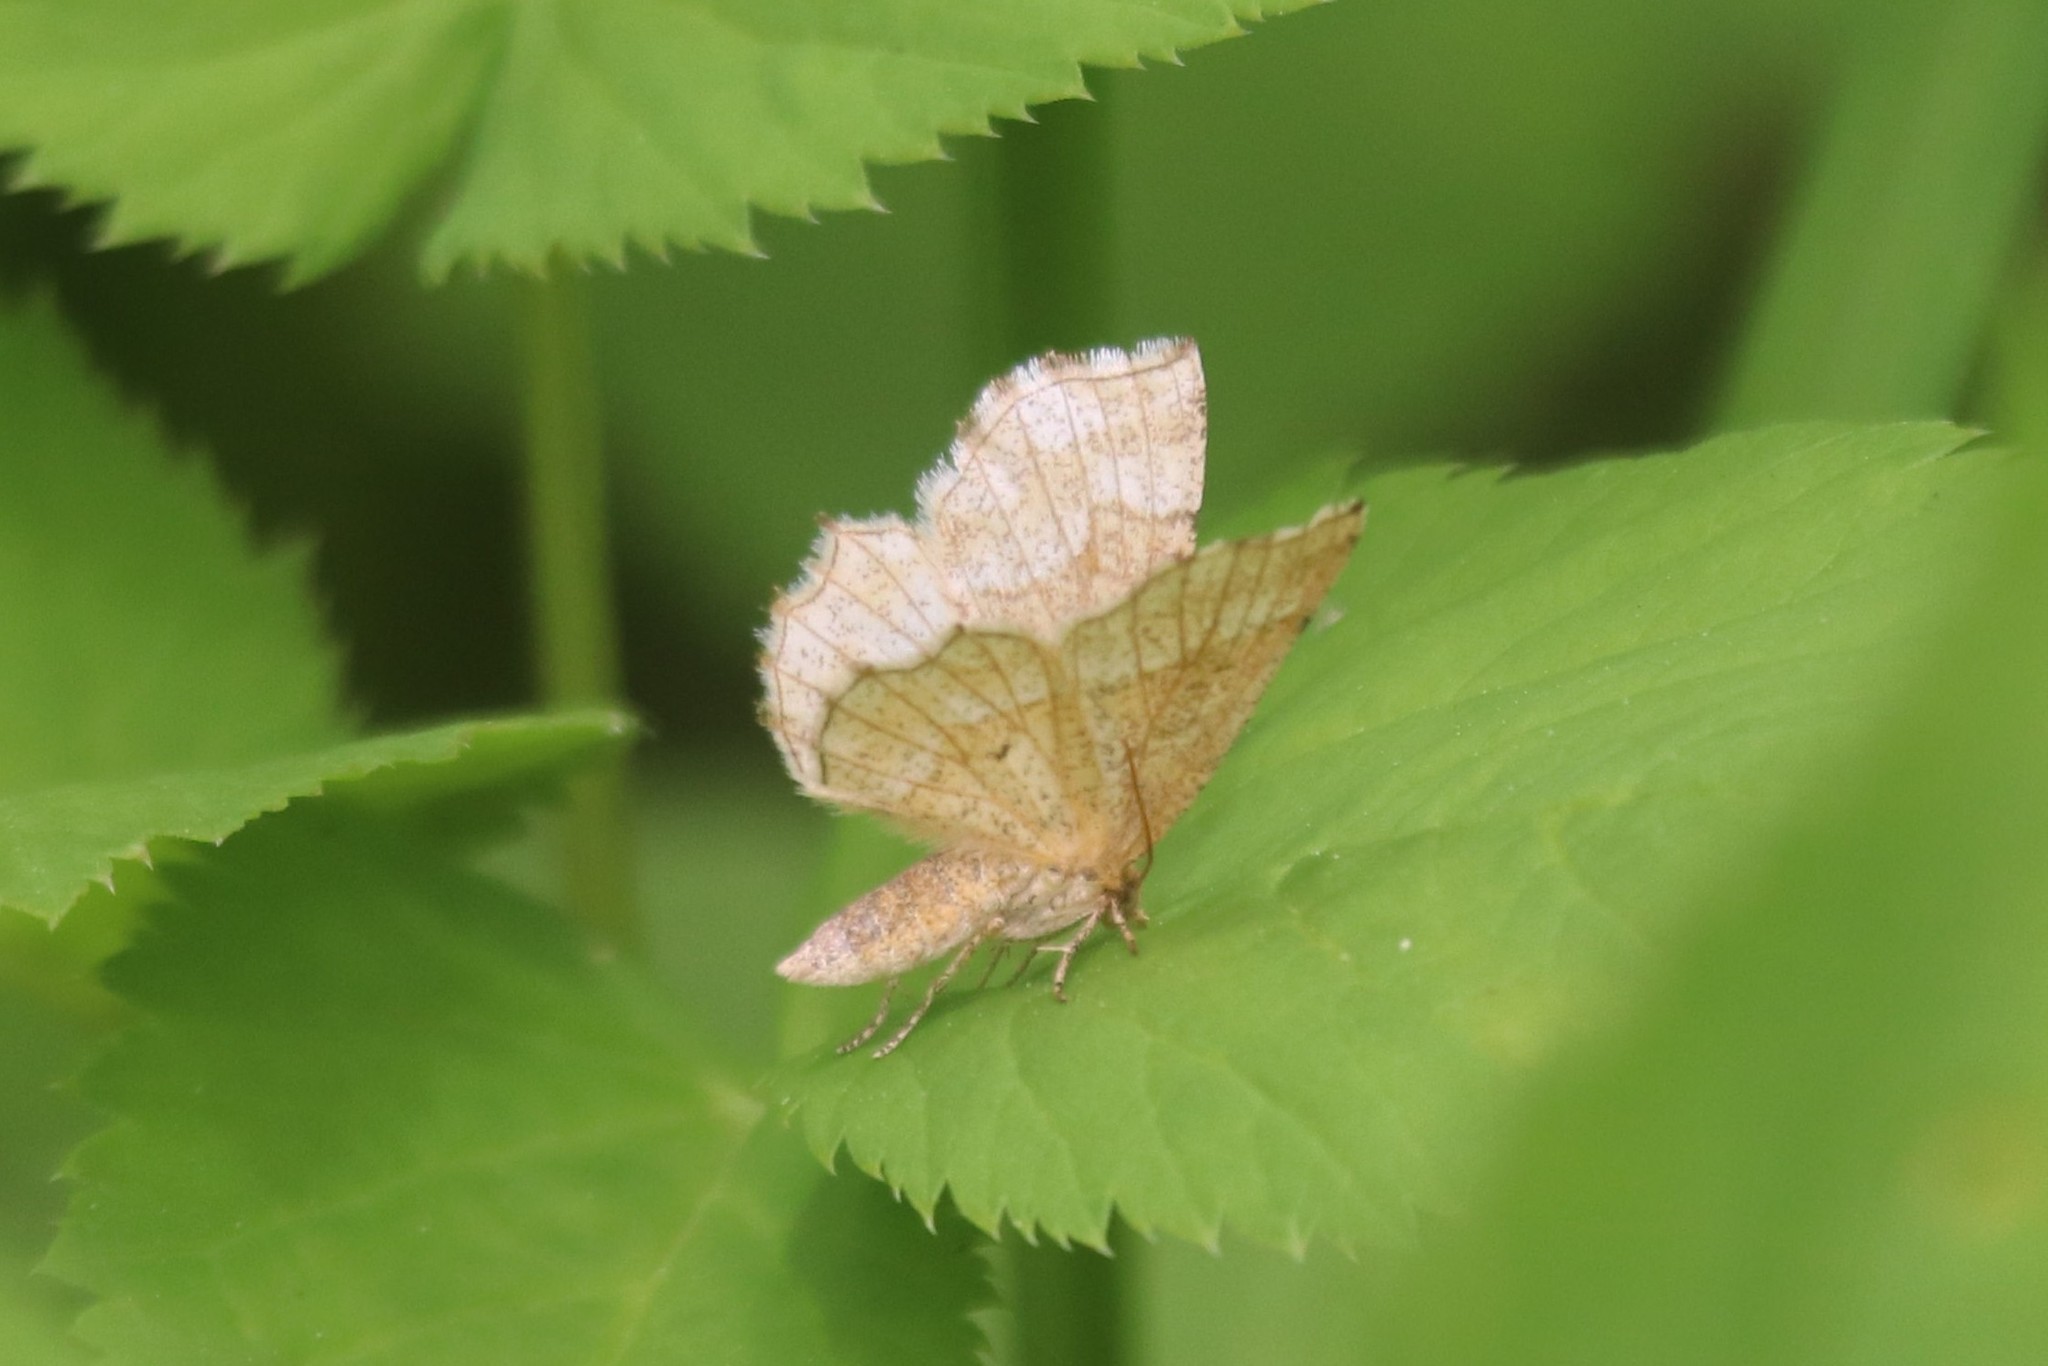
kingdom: Animalia
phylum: Arthropoda
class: Insecta
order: Lepidoptera
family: Geometridae
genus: Cepphis
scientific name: Cepphis advenaria
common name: Little thorn
